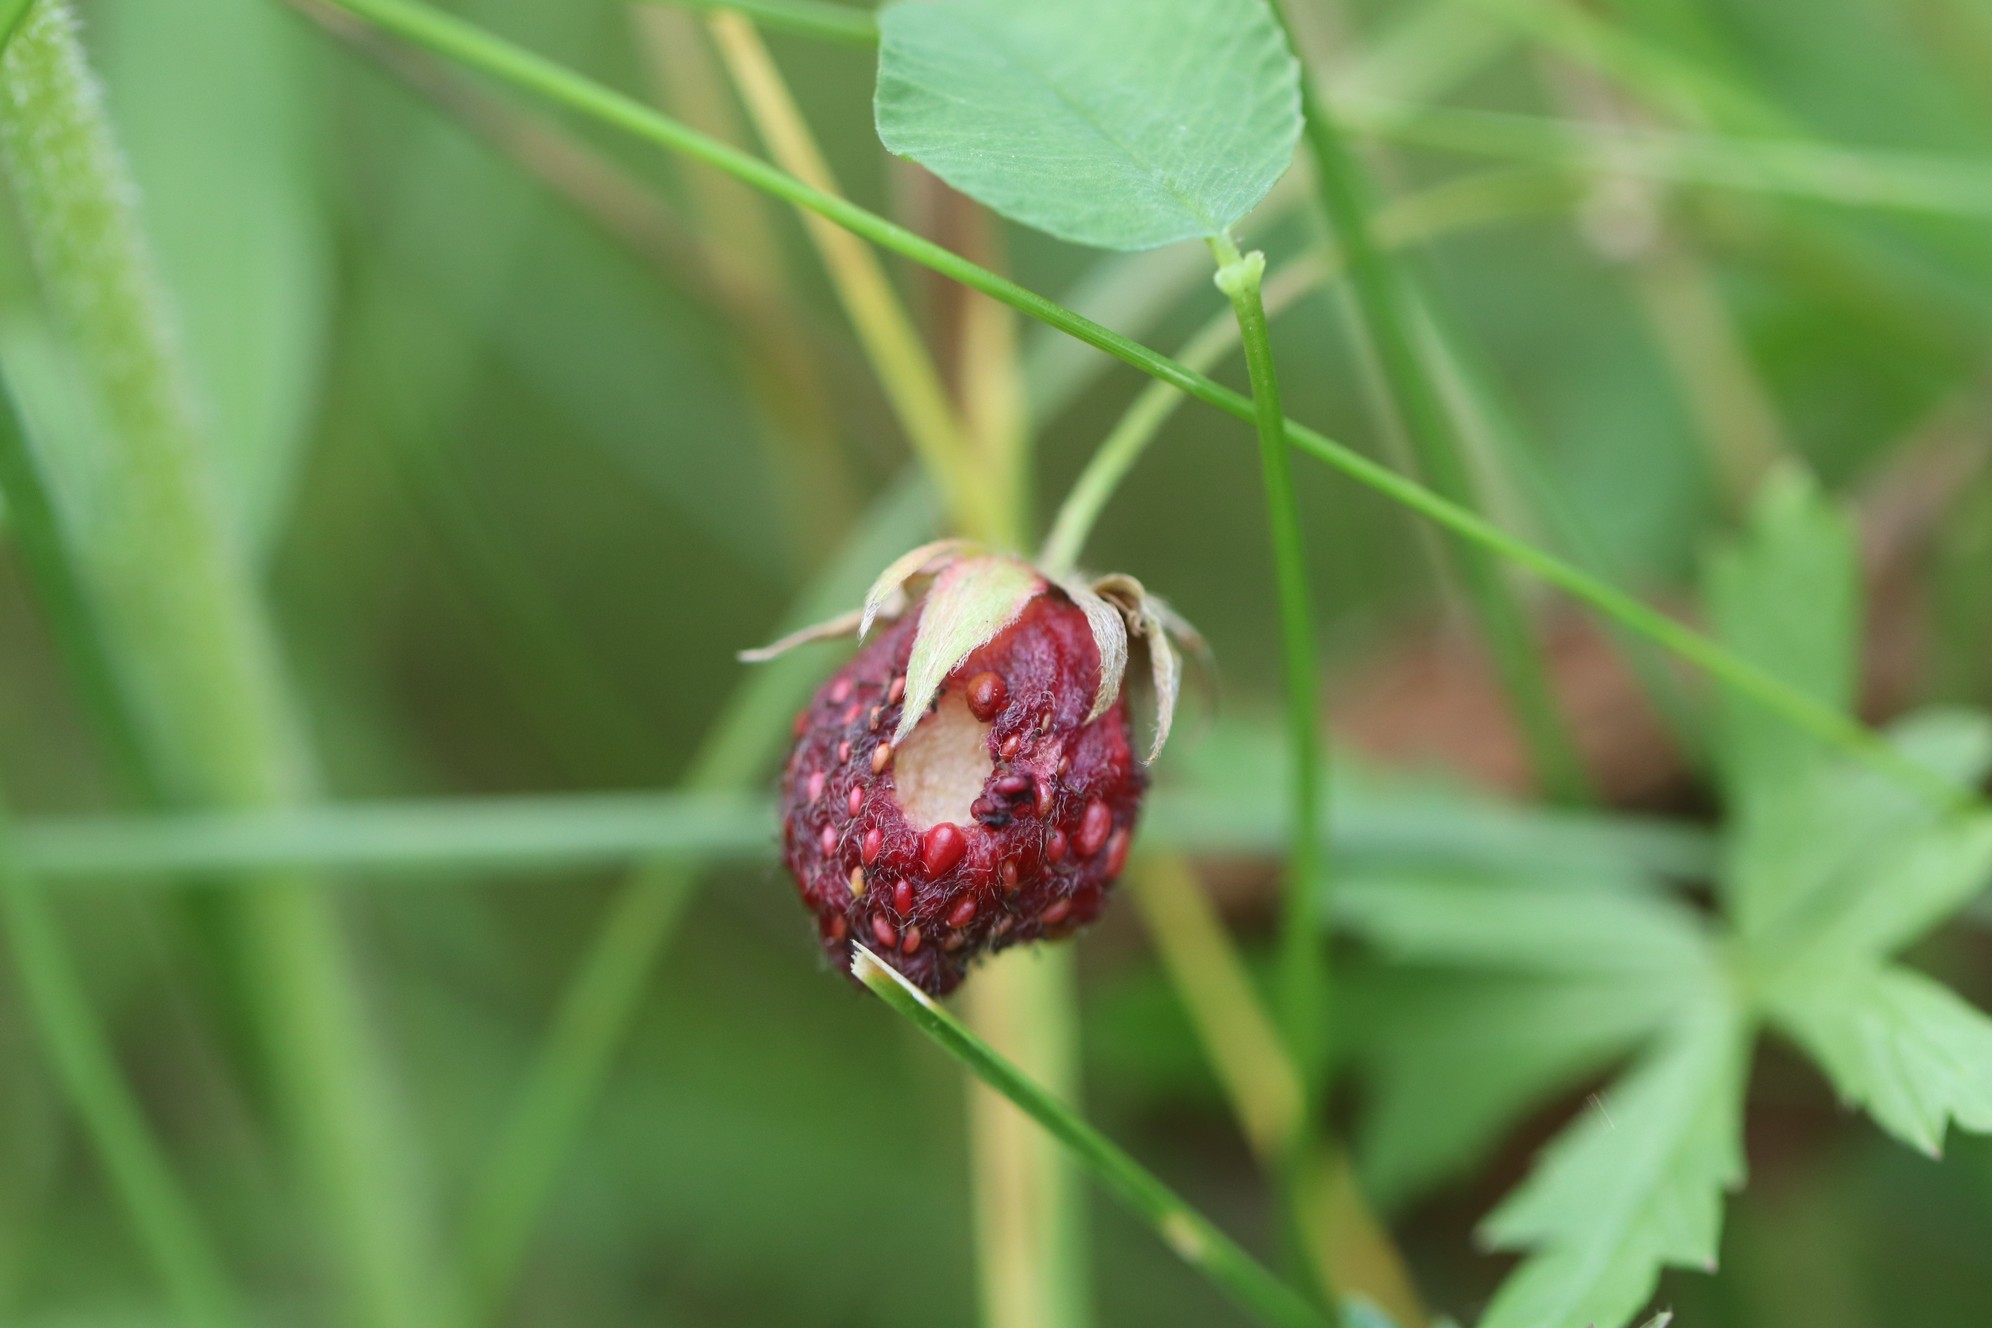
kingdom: Plantae
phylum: Tracheophyta
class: Magnoliopsida
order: Rosales
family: Rosaceae
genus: Fragaria
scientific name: Fragaria viridis
